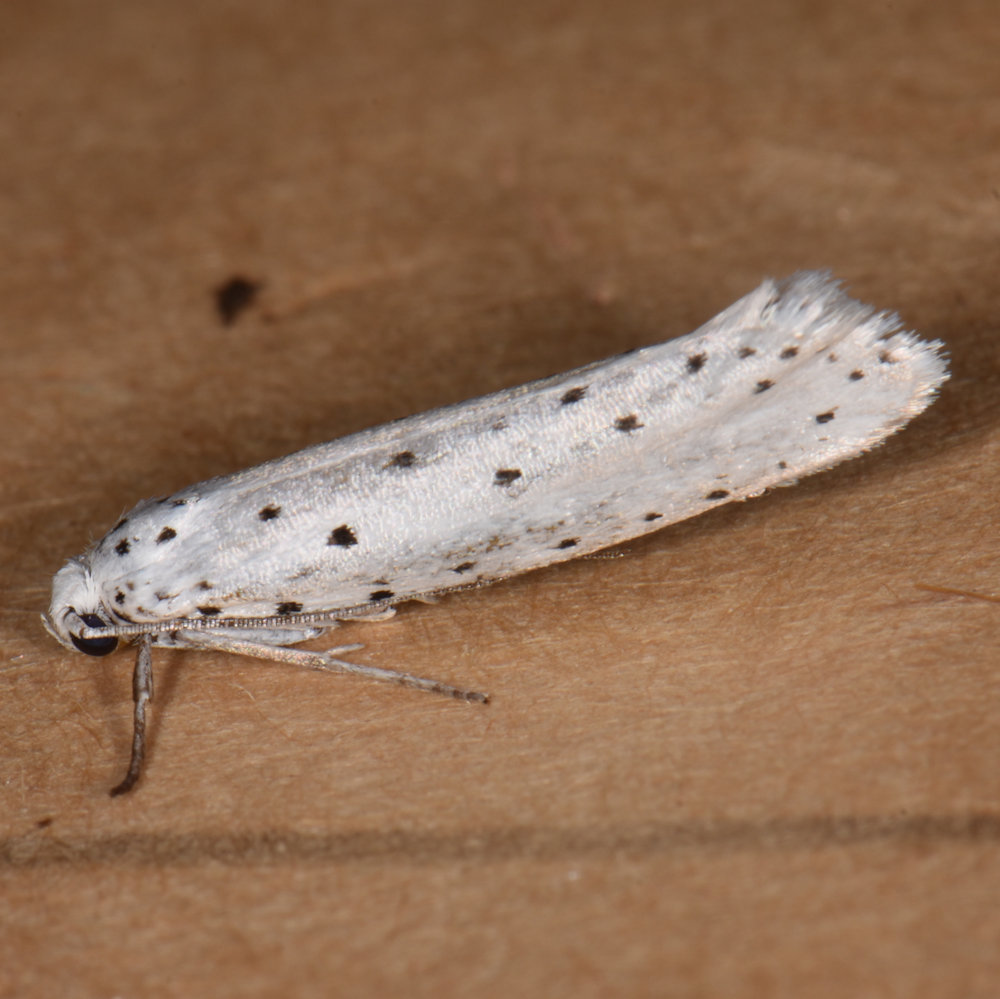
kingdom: Animalia
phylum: Arthropoda
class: Insecta
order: Lepidoptera
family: Yponomeutidae
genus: Yponomeuta
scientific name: Yponomeuta cagnagellus
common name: Spindle ermine
